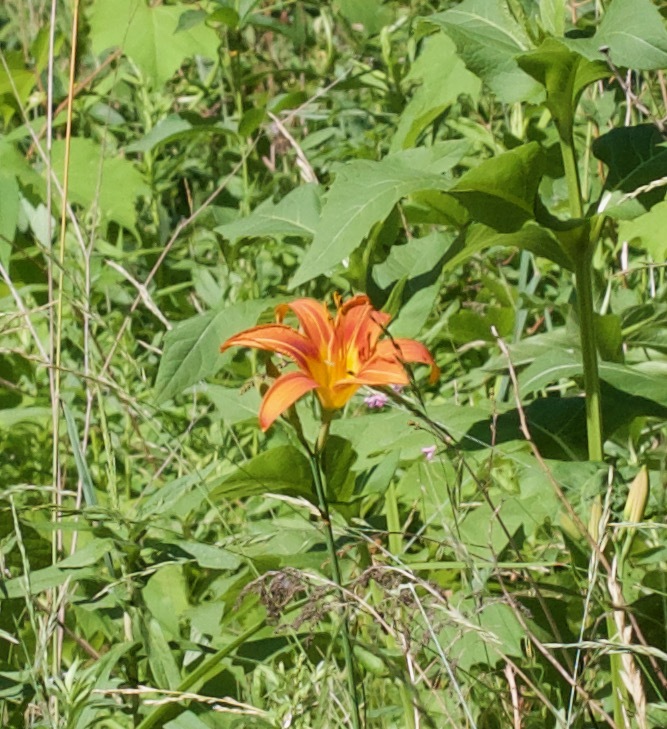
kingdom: Plantae
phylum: Tracheophyta
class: Liliopsida
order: Asparagales
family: Asphodelaceae
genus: Hemerocallis
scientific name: Hemerocallis fulva
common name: Orange day-lily
